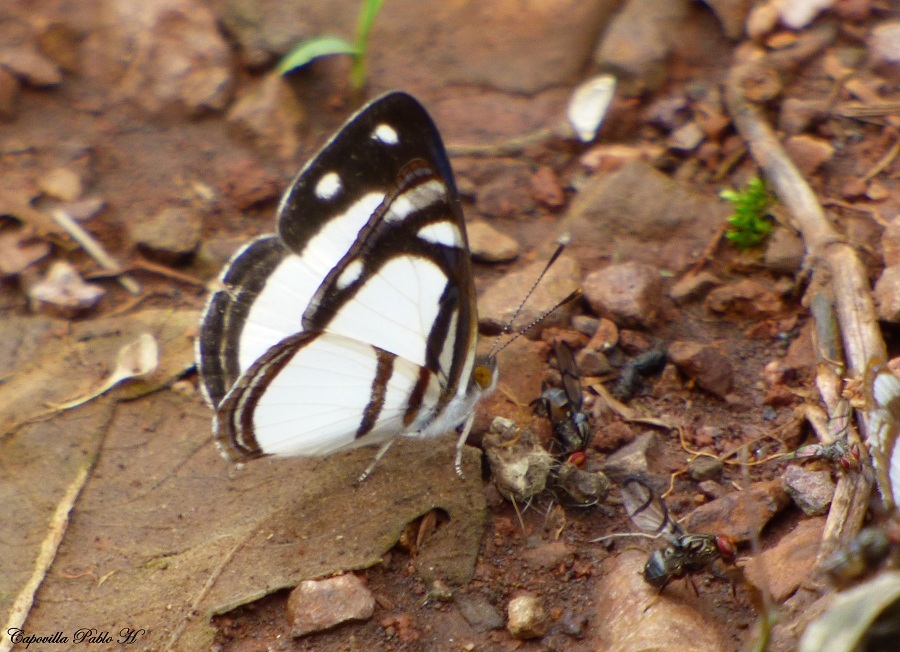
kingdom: Animalia
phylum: Arthropoda
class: Insecta
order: Lepidoptera
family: Nymphalidae
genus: Dynamine
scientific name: Dynamine athemon
